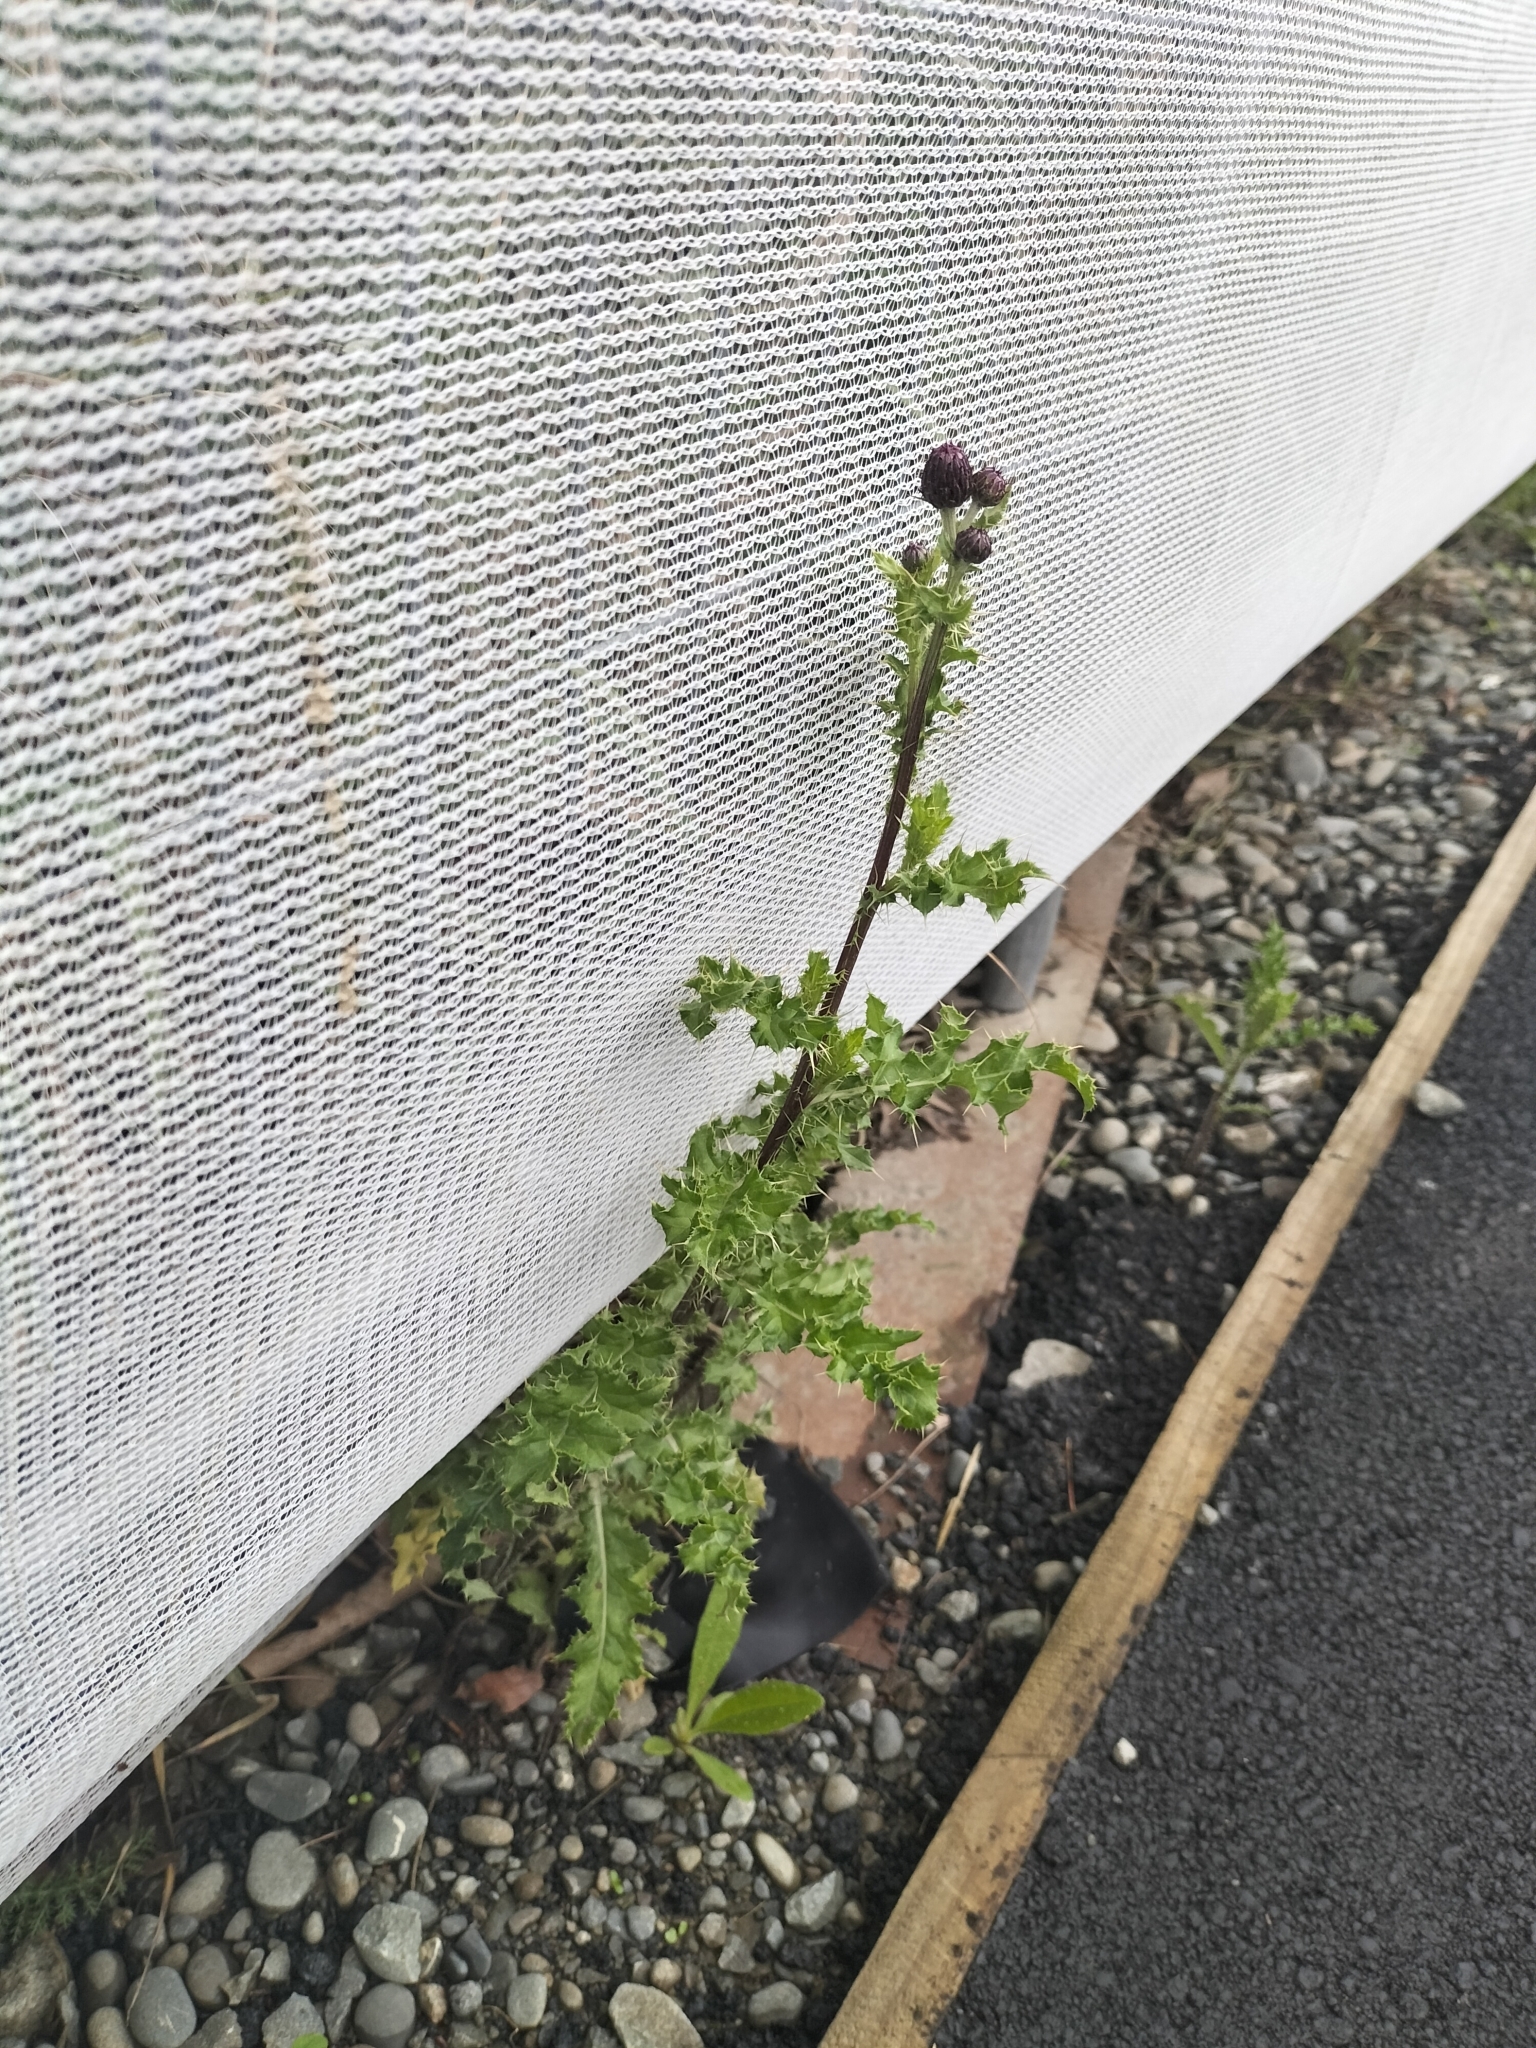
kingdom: Plantae
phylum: Tracheophyta
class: Magnoliopsida
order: Asterales
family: Asteraceae
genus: Cirsium
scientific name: Cirsium arvense
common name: Creeping thistle
